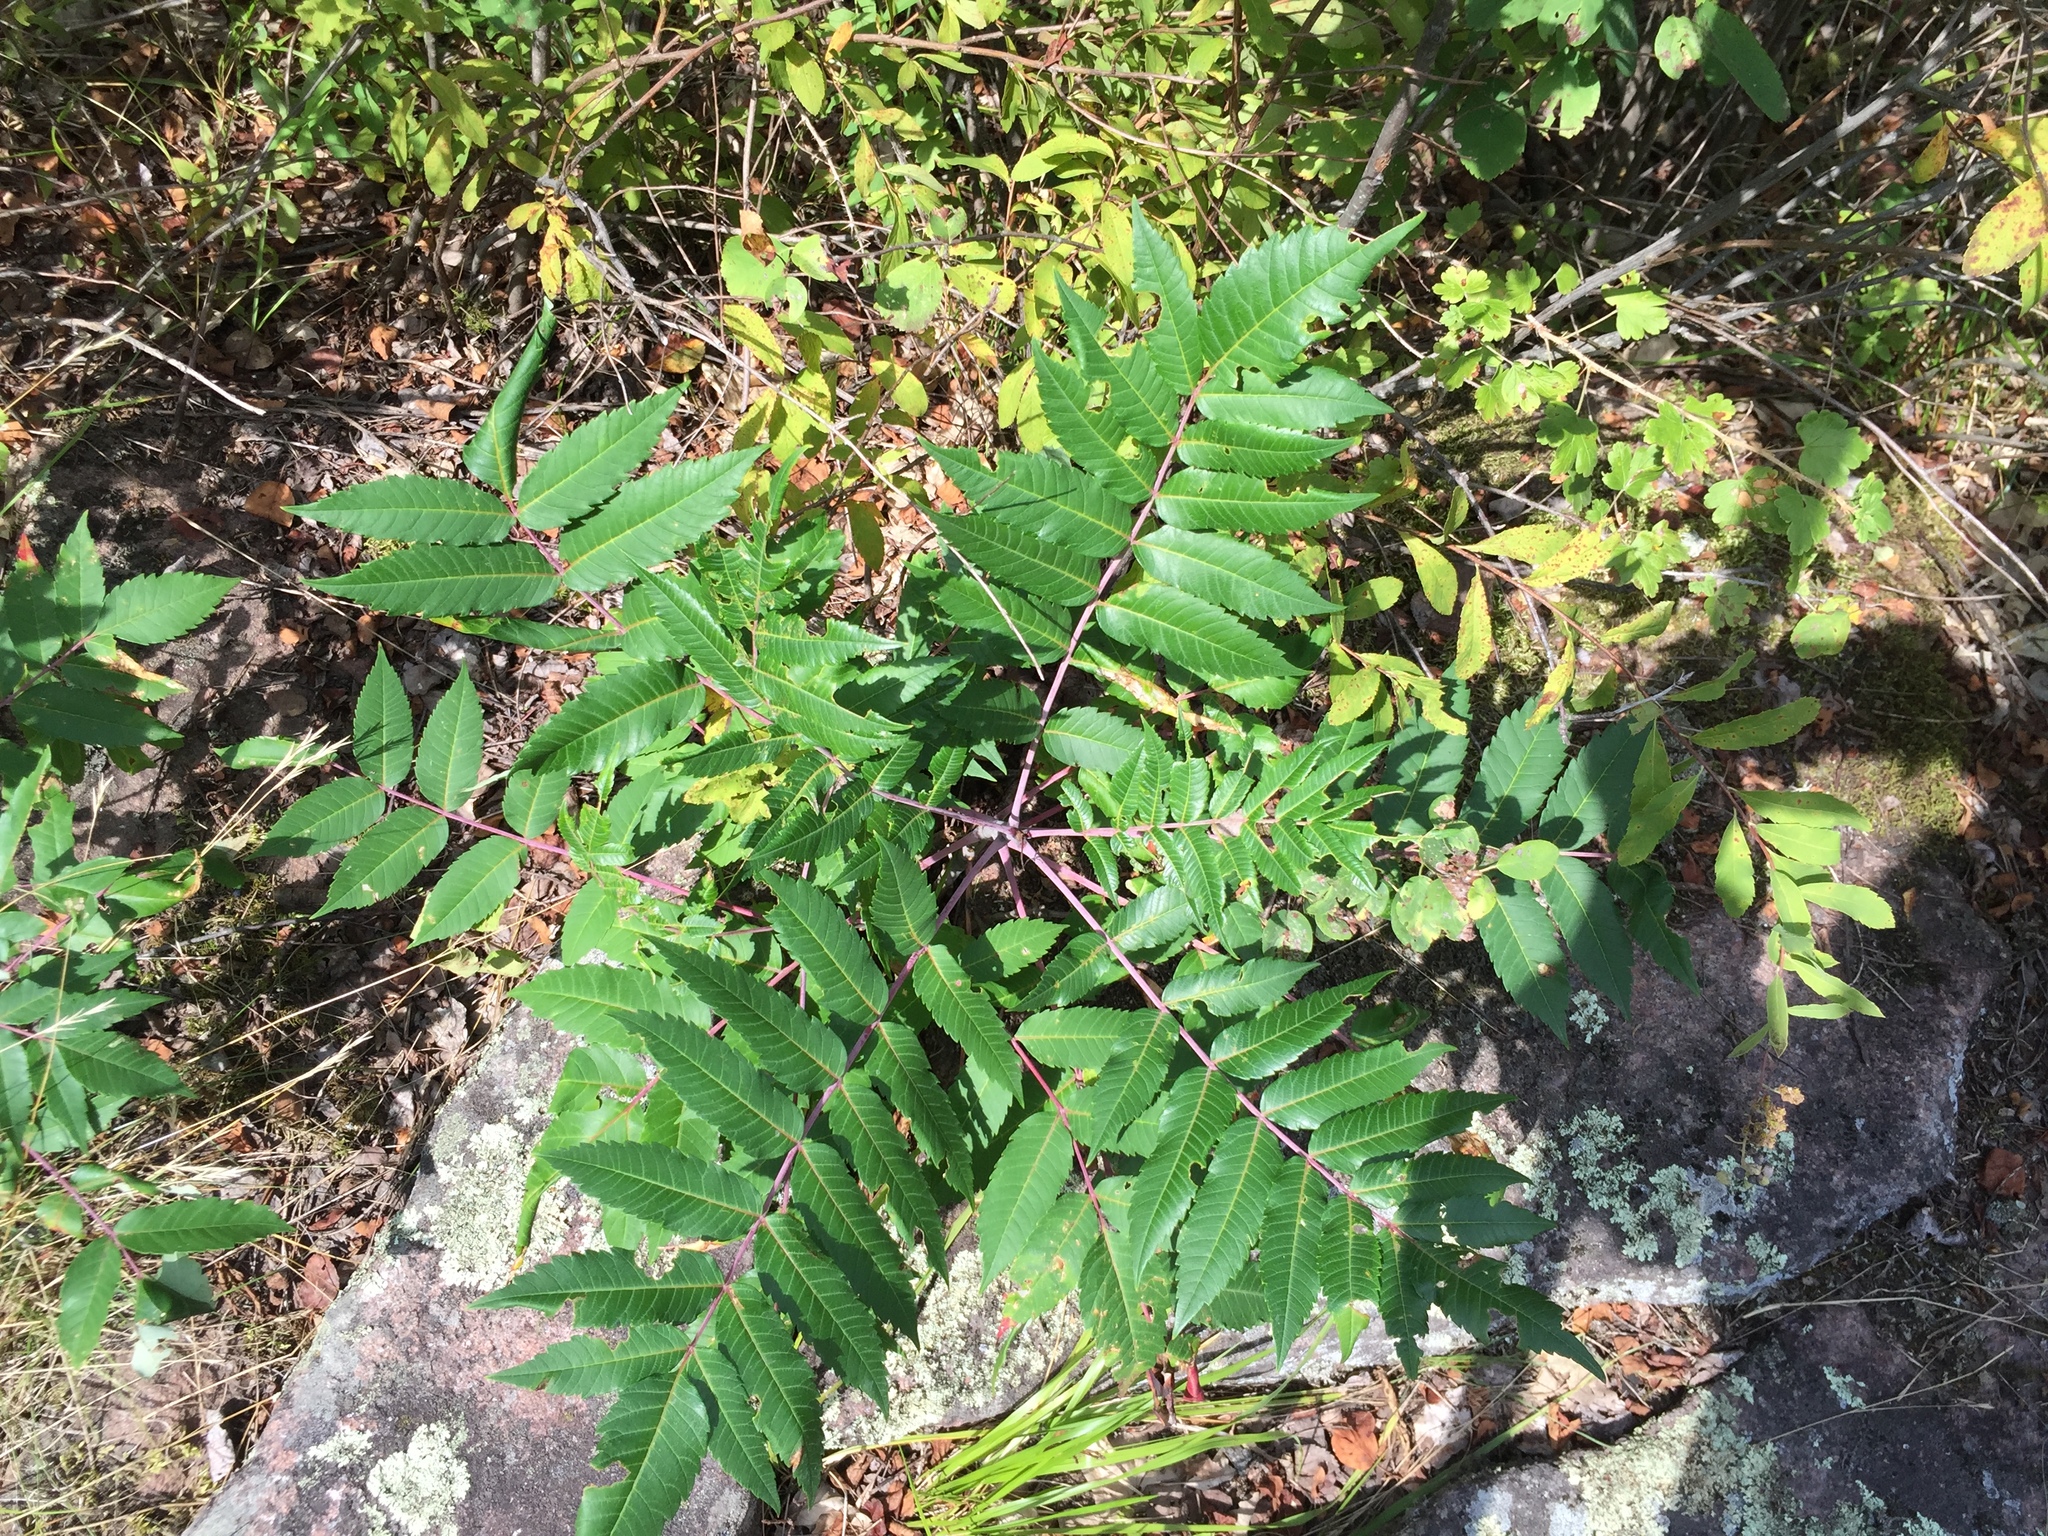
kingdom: Plantae
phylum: Tracheophyta
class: Magnoliopsida
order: Sapindales
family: Anacardiaceae
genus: Rhus
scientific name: Rhus glabra
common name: Scarlet sumac
